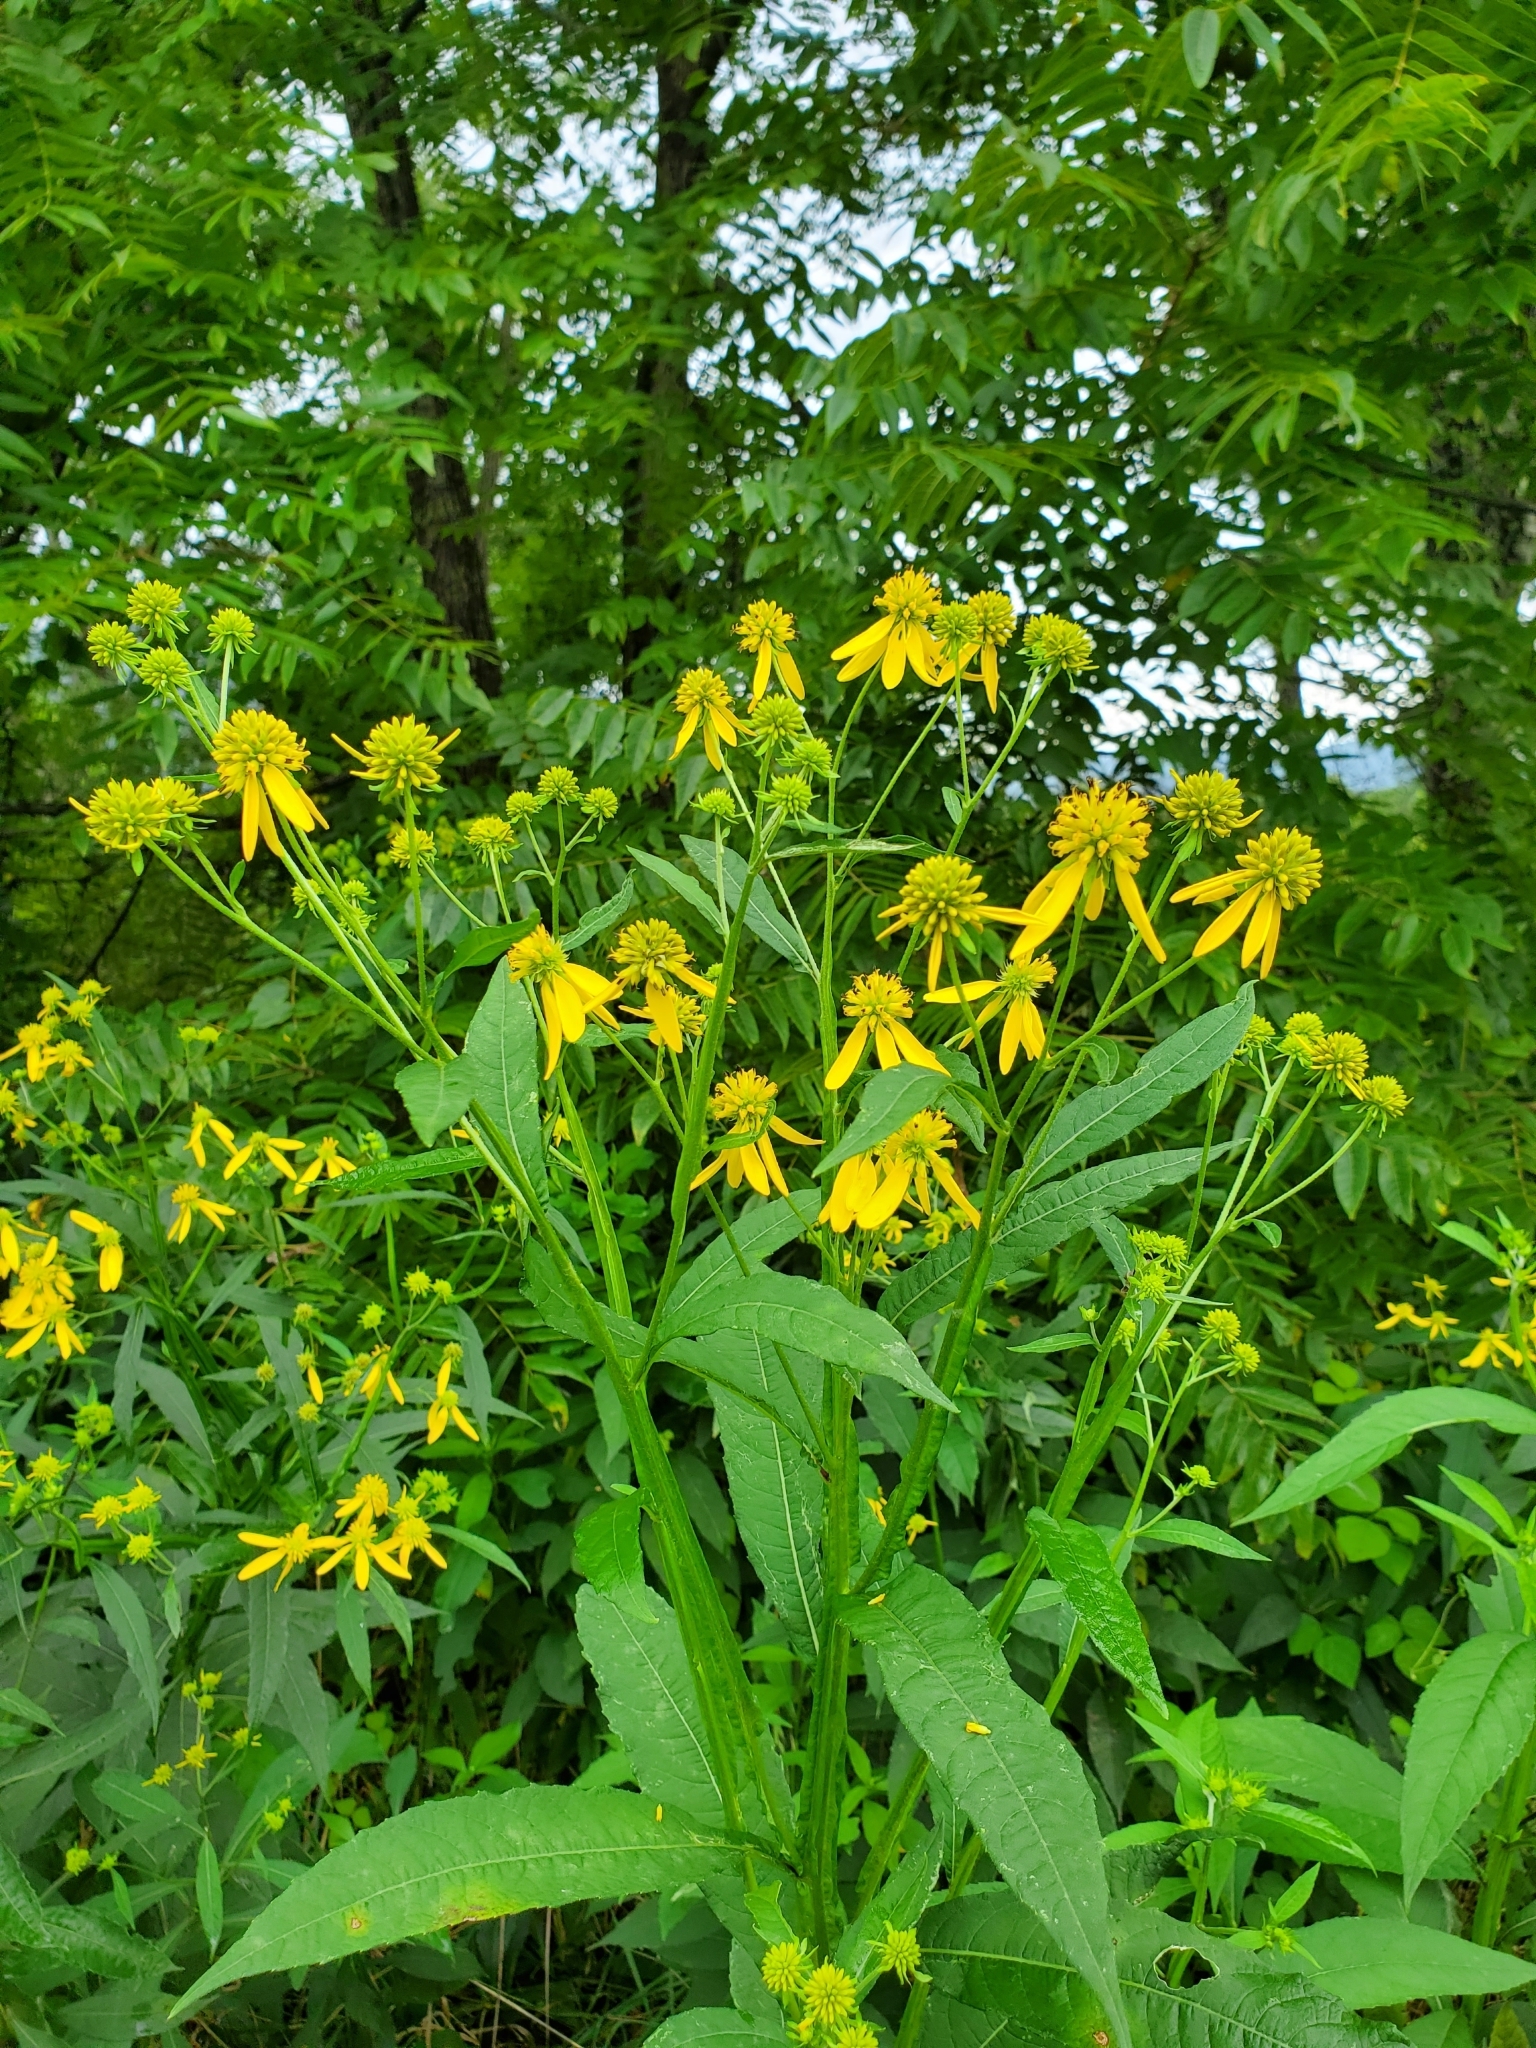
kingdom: Plantae
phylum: Tracheophyta
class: Magnoliopsida
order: Asterales
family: Asteraceae
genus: Verbesina
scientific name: Verbesina alternifolia
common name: Wingstem
